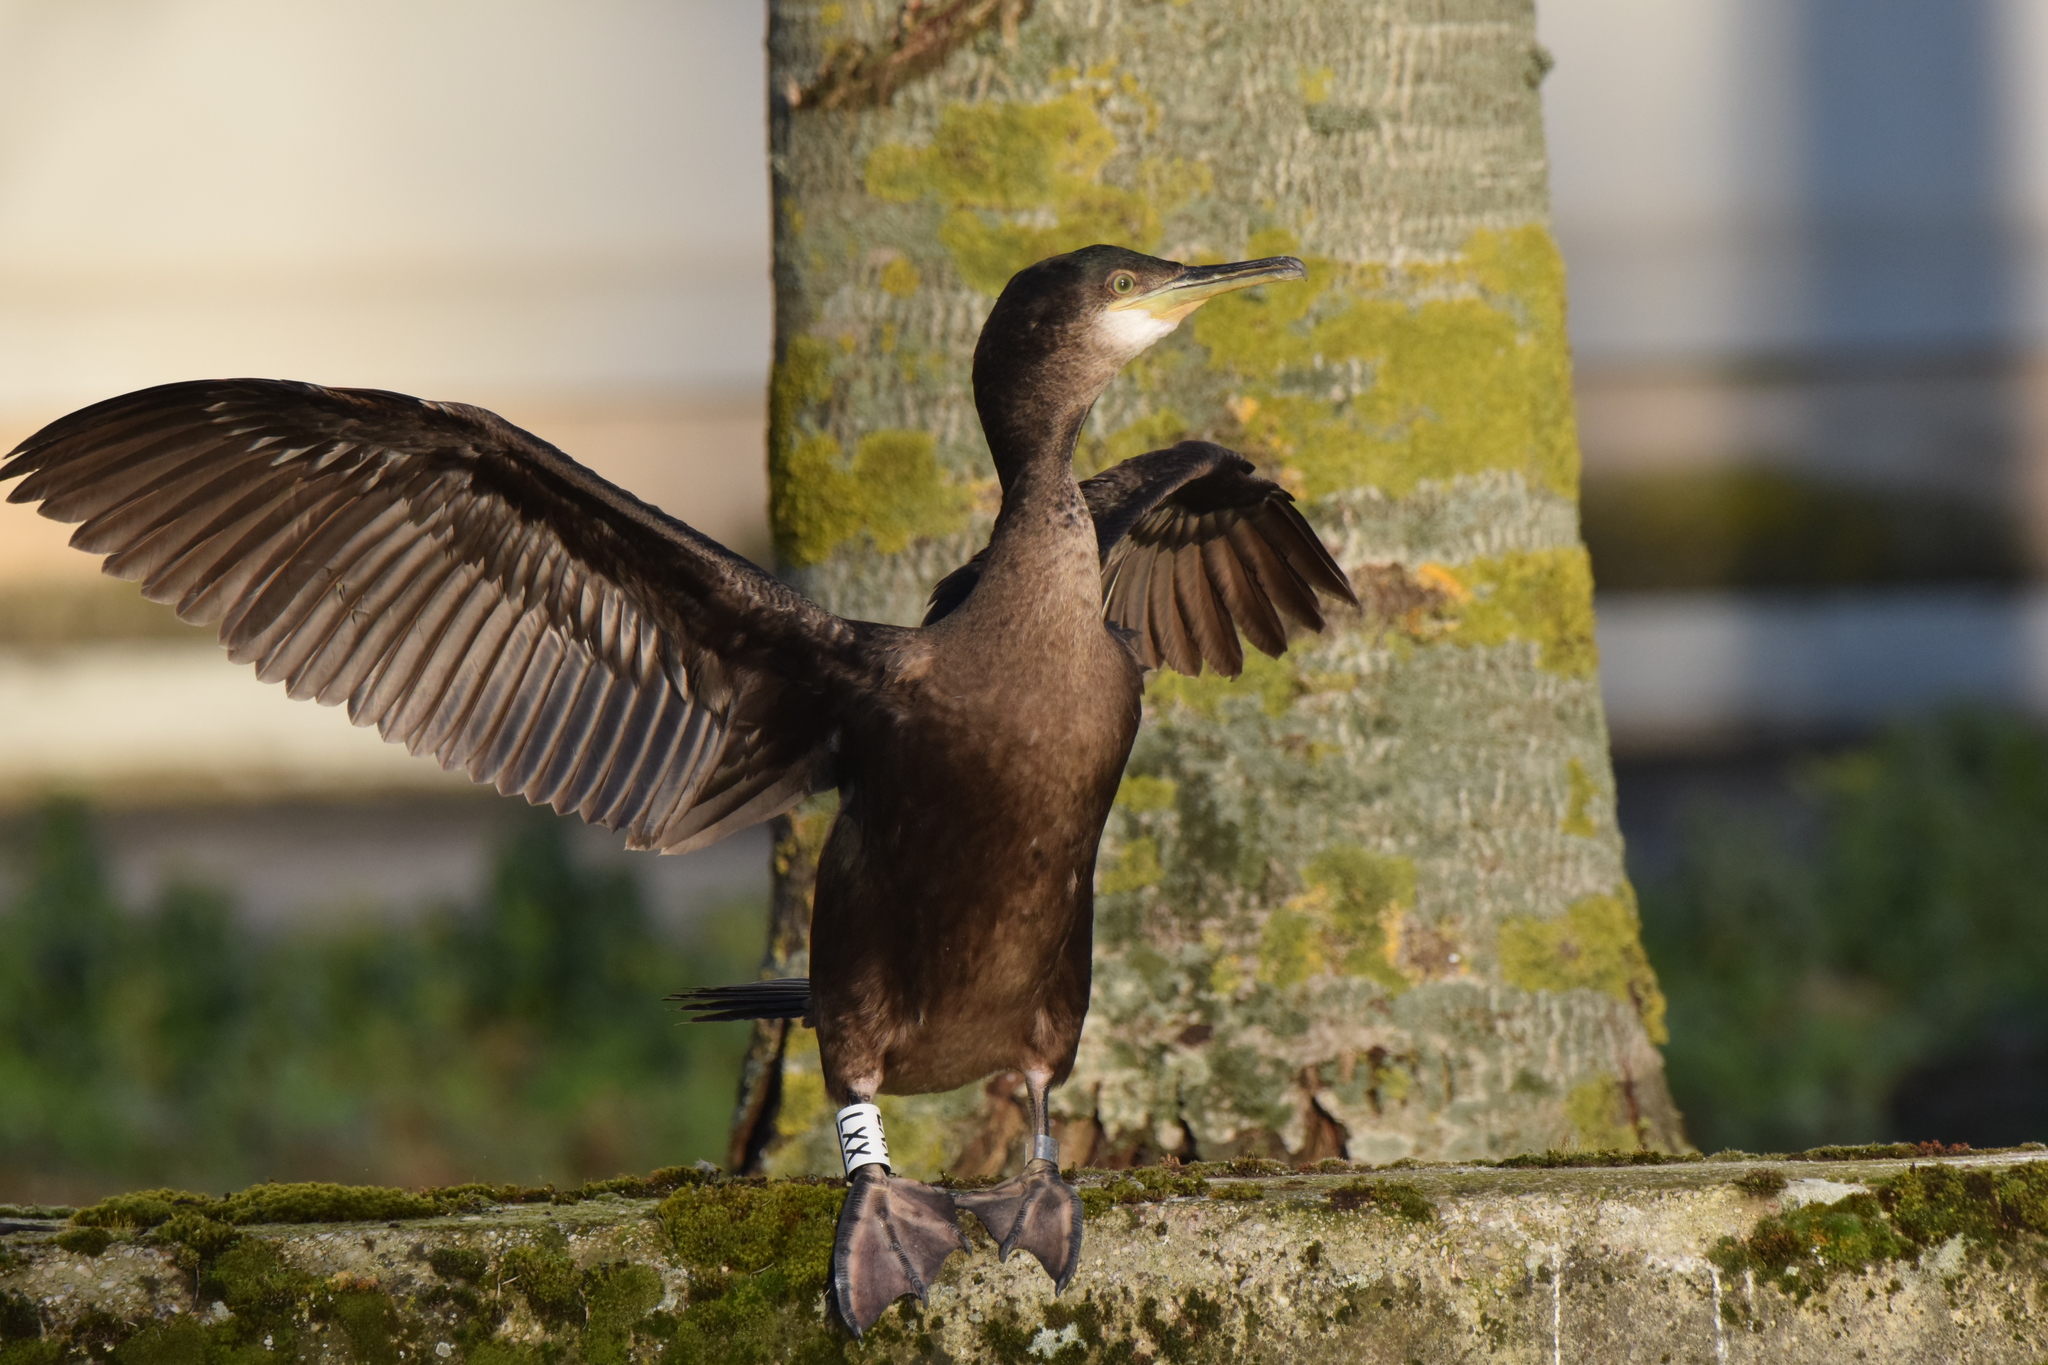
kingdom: Animalia
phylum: Chordata
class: Aves
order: Suliformes
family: Phalacrocoracidae
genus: Phalacrocorax
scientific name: Phalacrocorax aristotelis
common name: European shag
